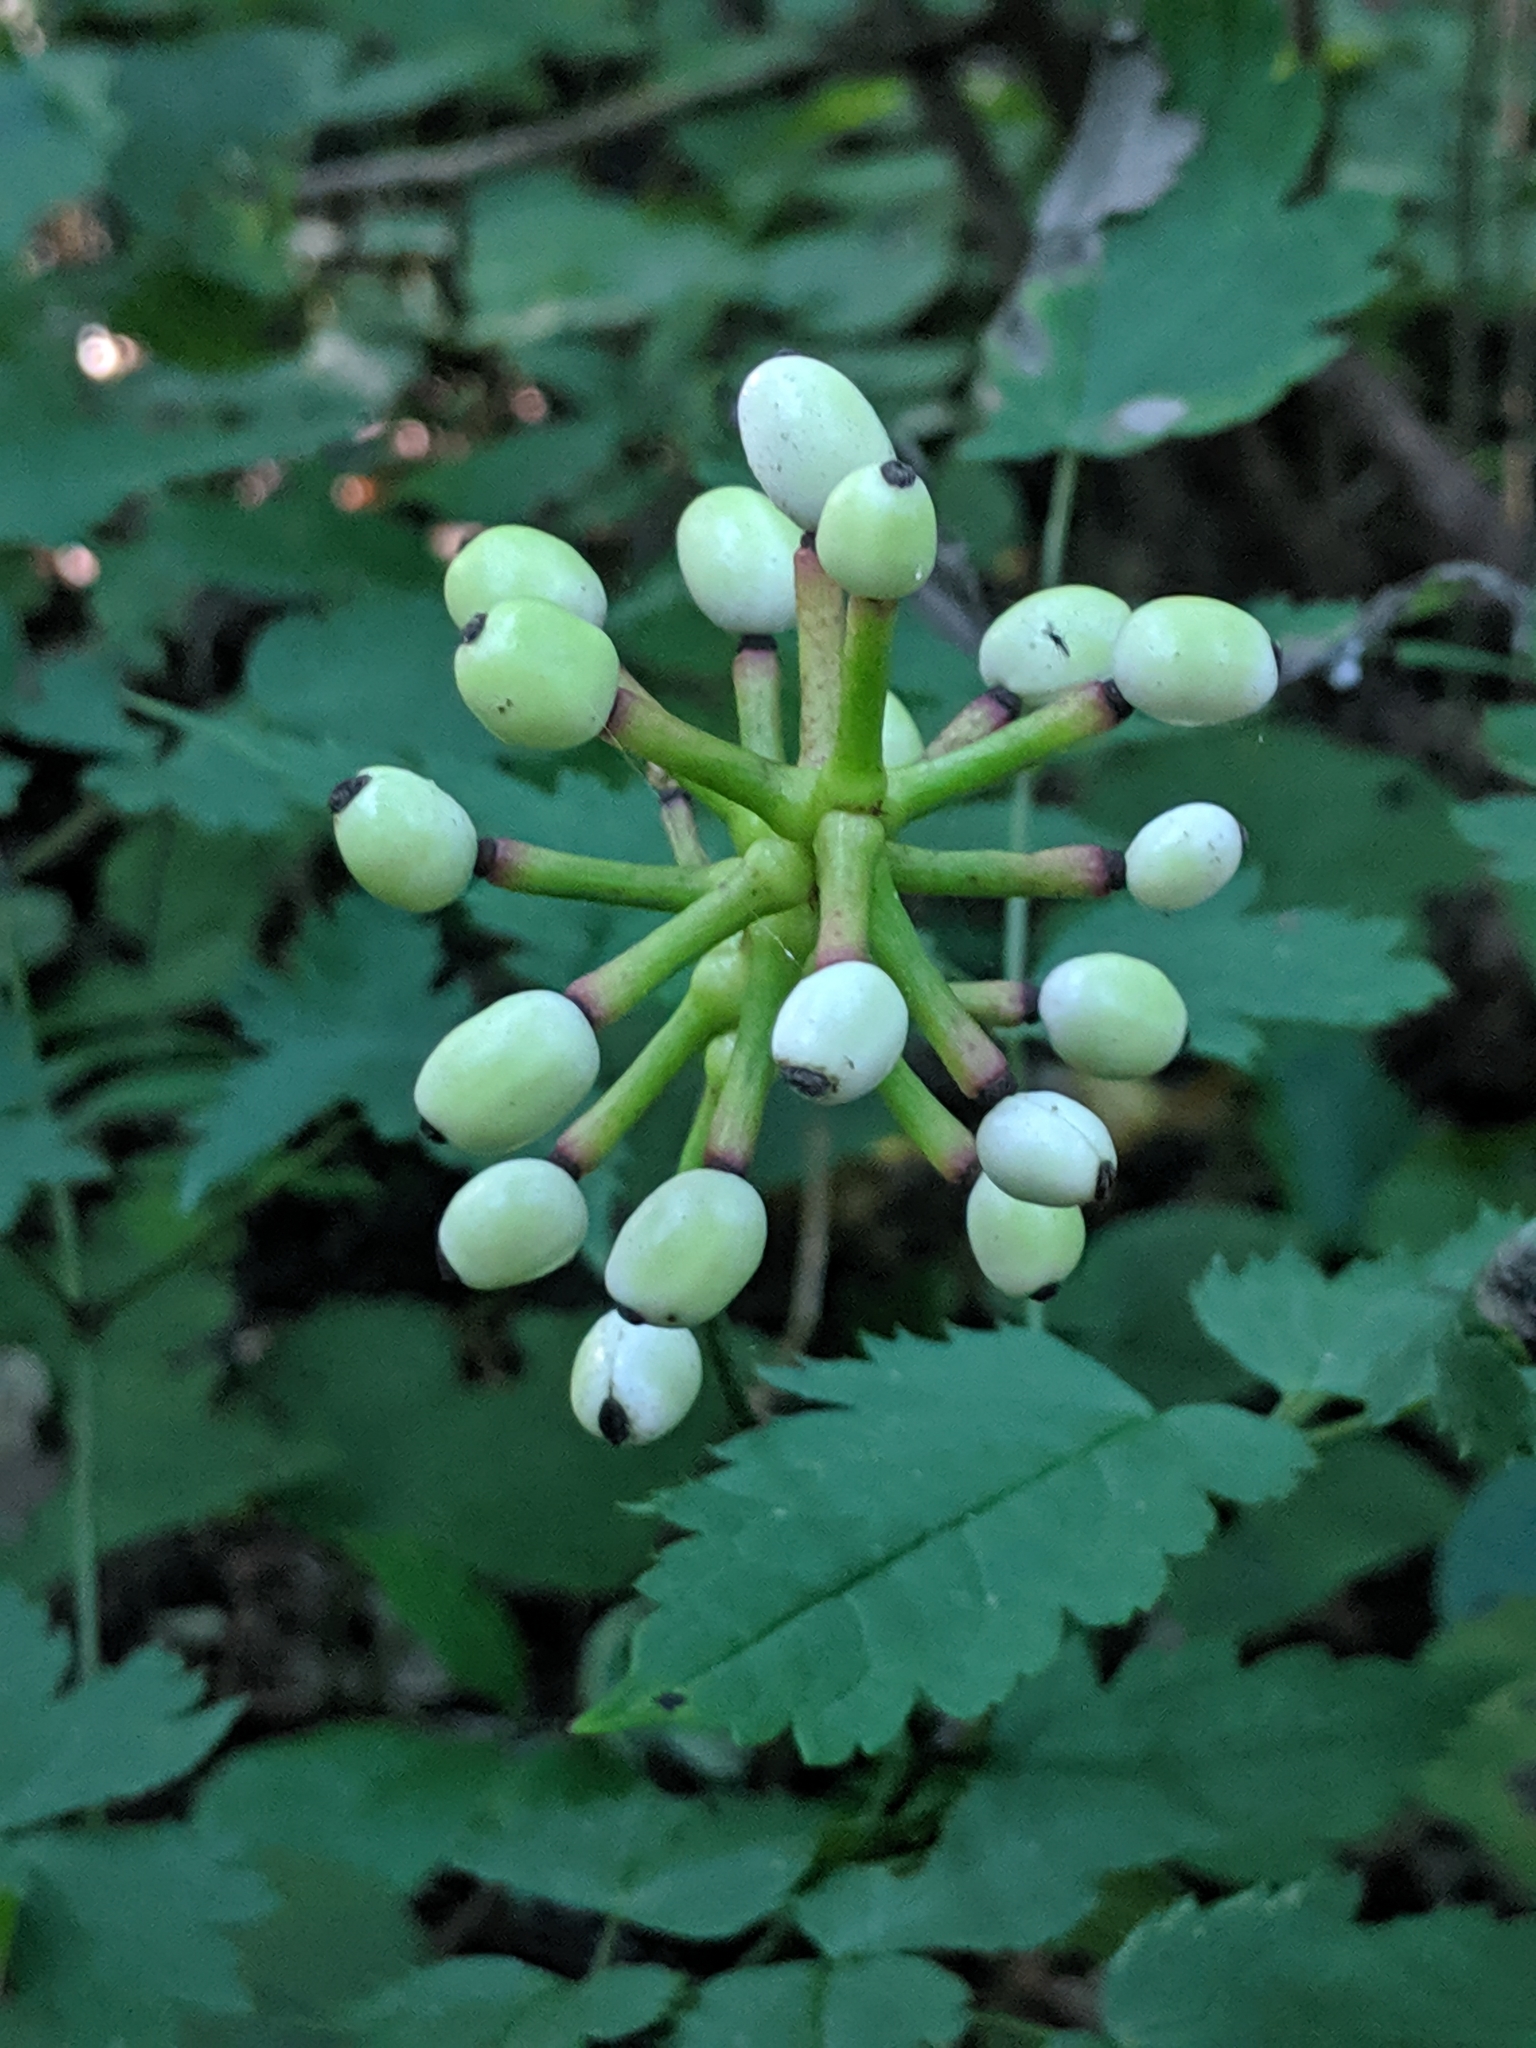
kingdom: Plantae
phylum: Tracheophyta
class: Magnoliopsida
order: Ranunculales
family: Ranunculaceae
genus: Actaea
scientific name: Actaea pachypoda
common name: Doll's-eyes
